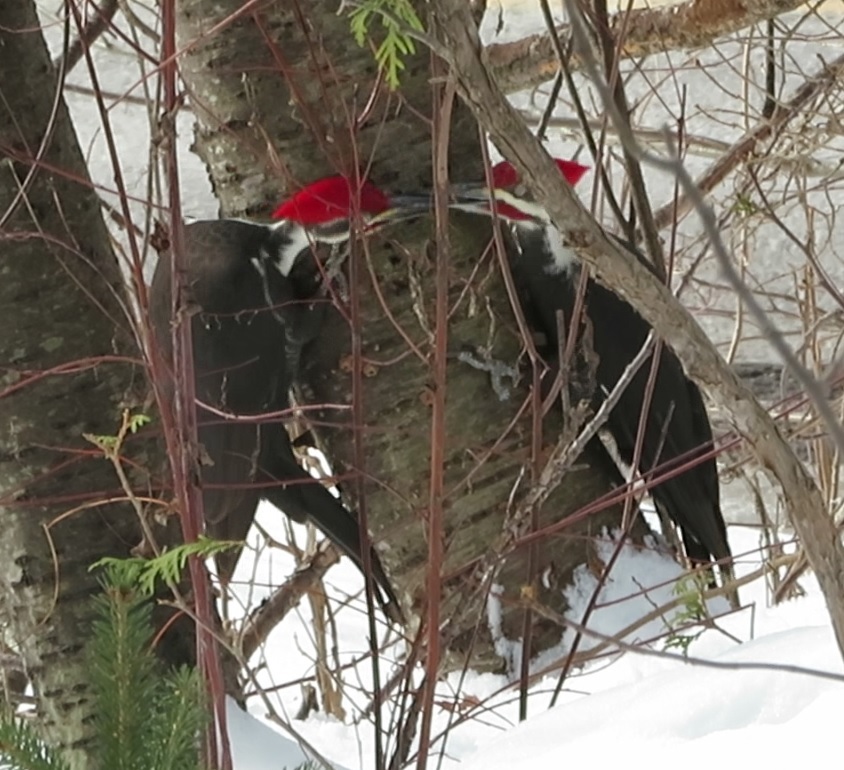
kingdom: Animalia
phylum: Chordata
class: Aves
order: Piciformes
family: Picidae
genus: Dryocopus
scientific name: Dryocopus pileatus
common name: Pileated woodpecker
